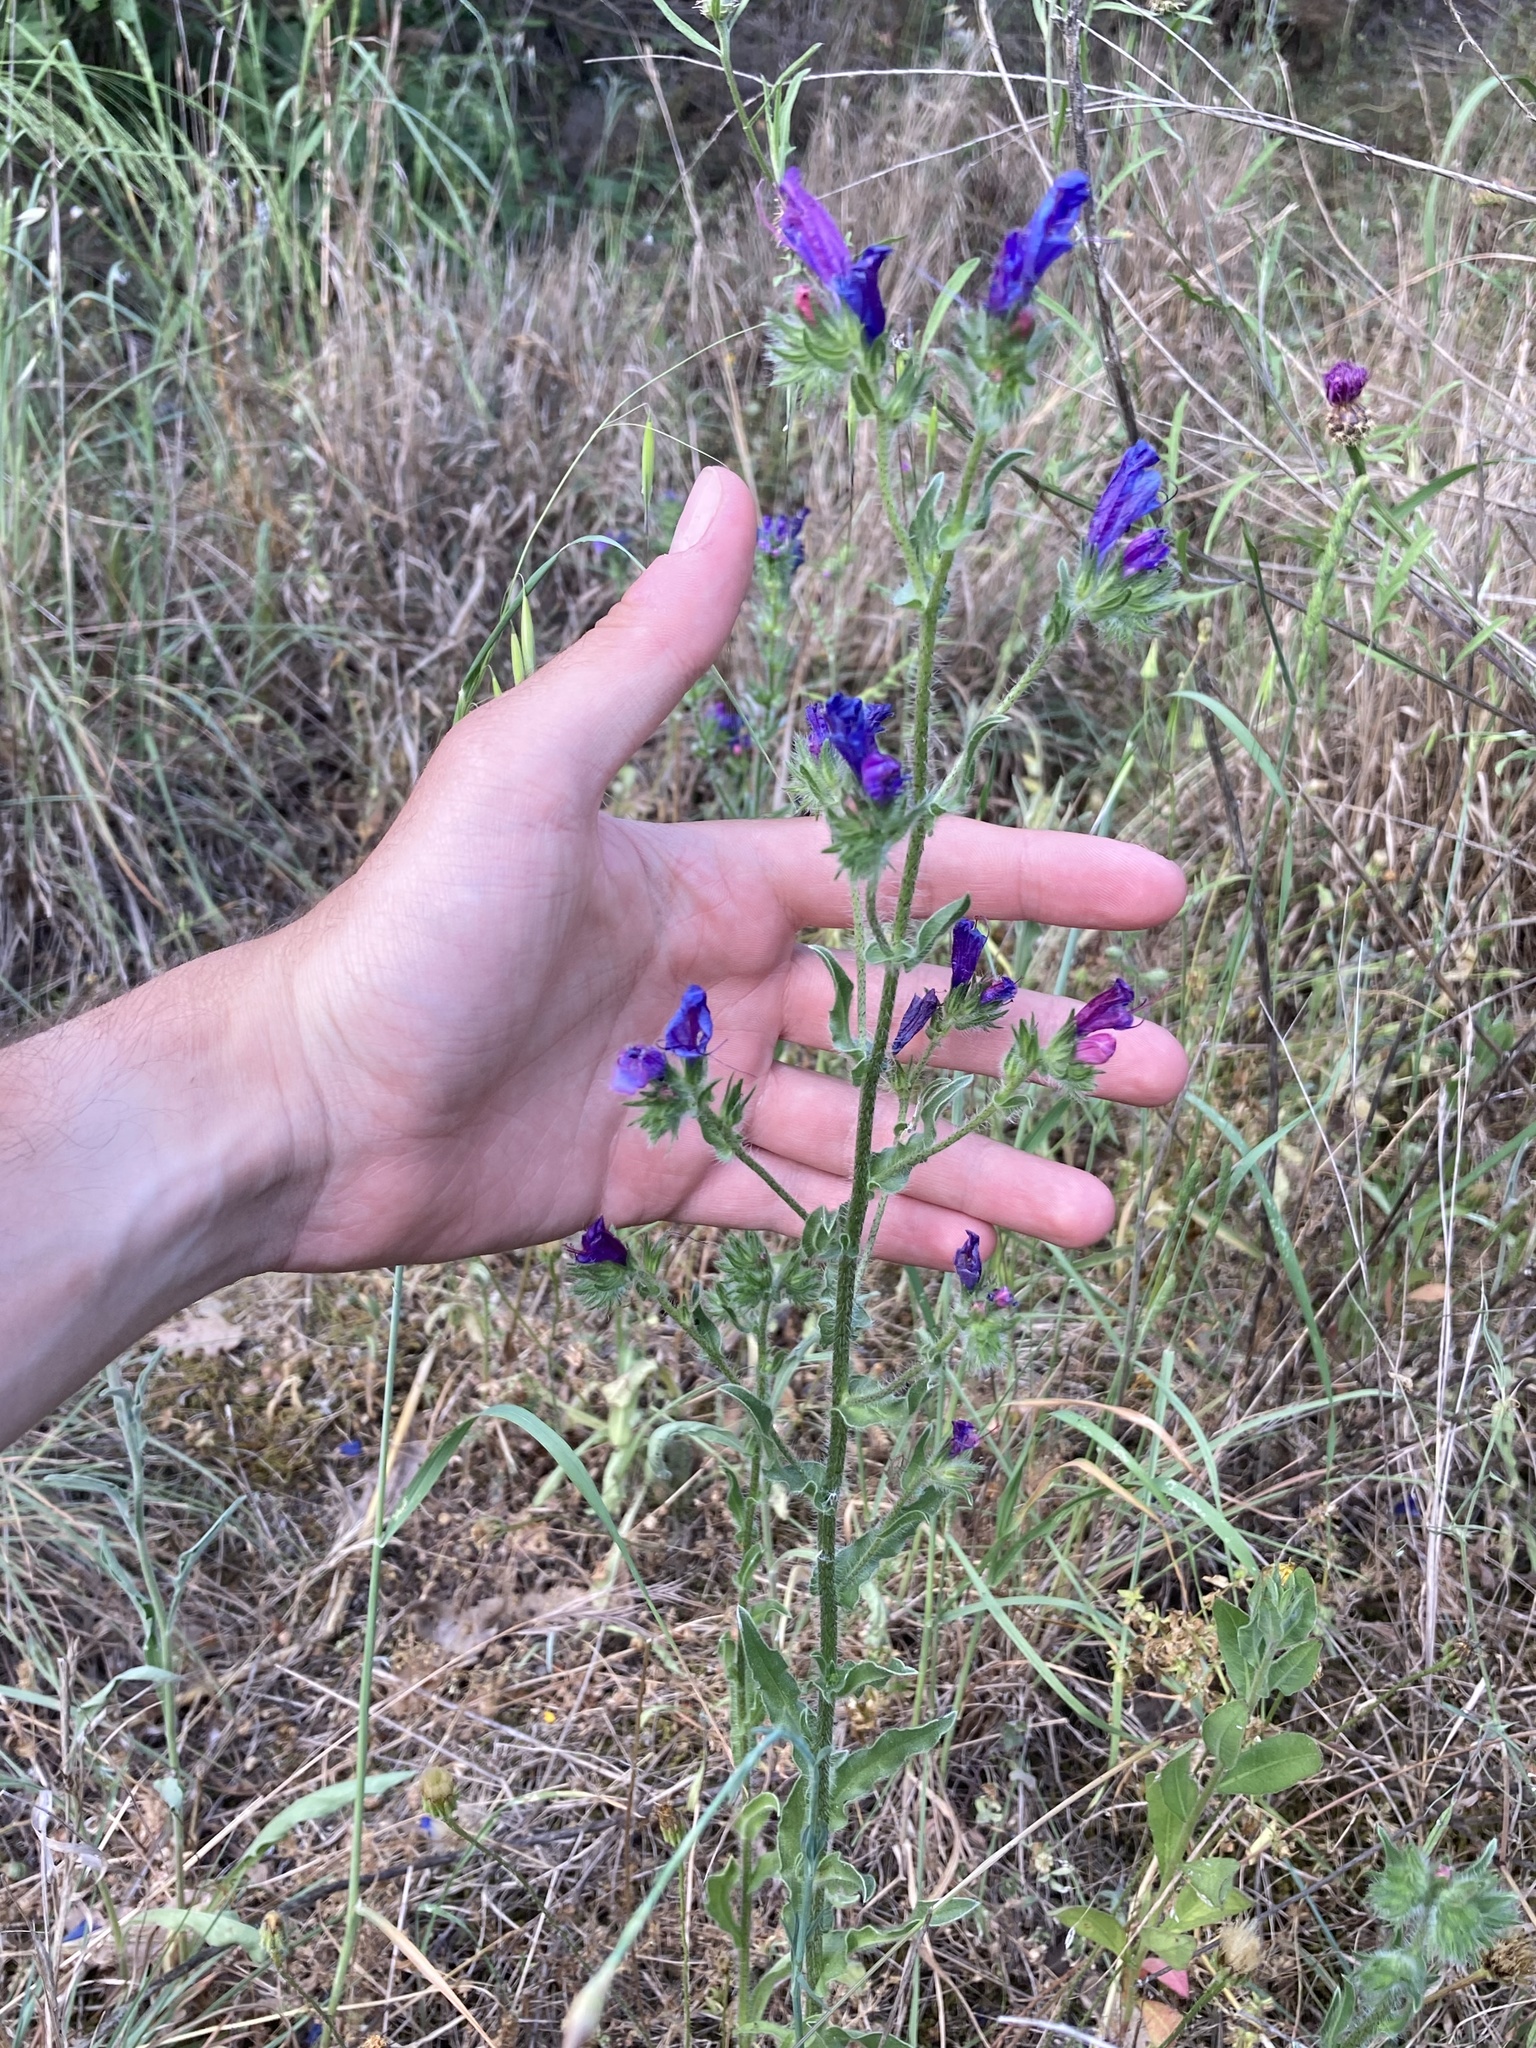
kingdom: Plantae
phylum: Tracheophyta
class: Magnoliopsida
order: Boraginales
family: Boraginaceae
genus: Echium
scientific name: Echium plantagineum
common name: Purple viper's-bugloss
